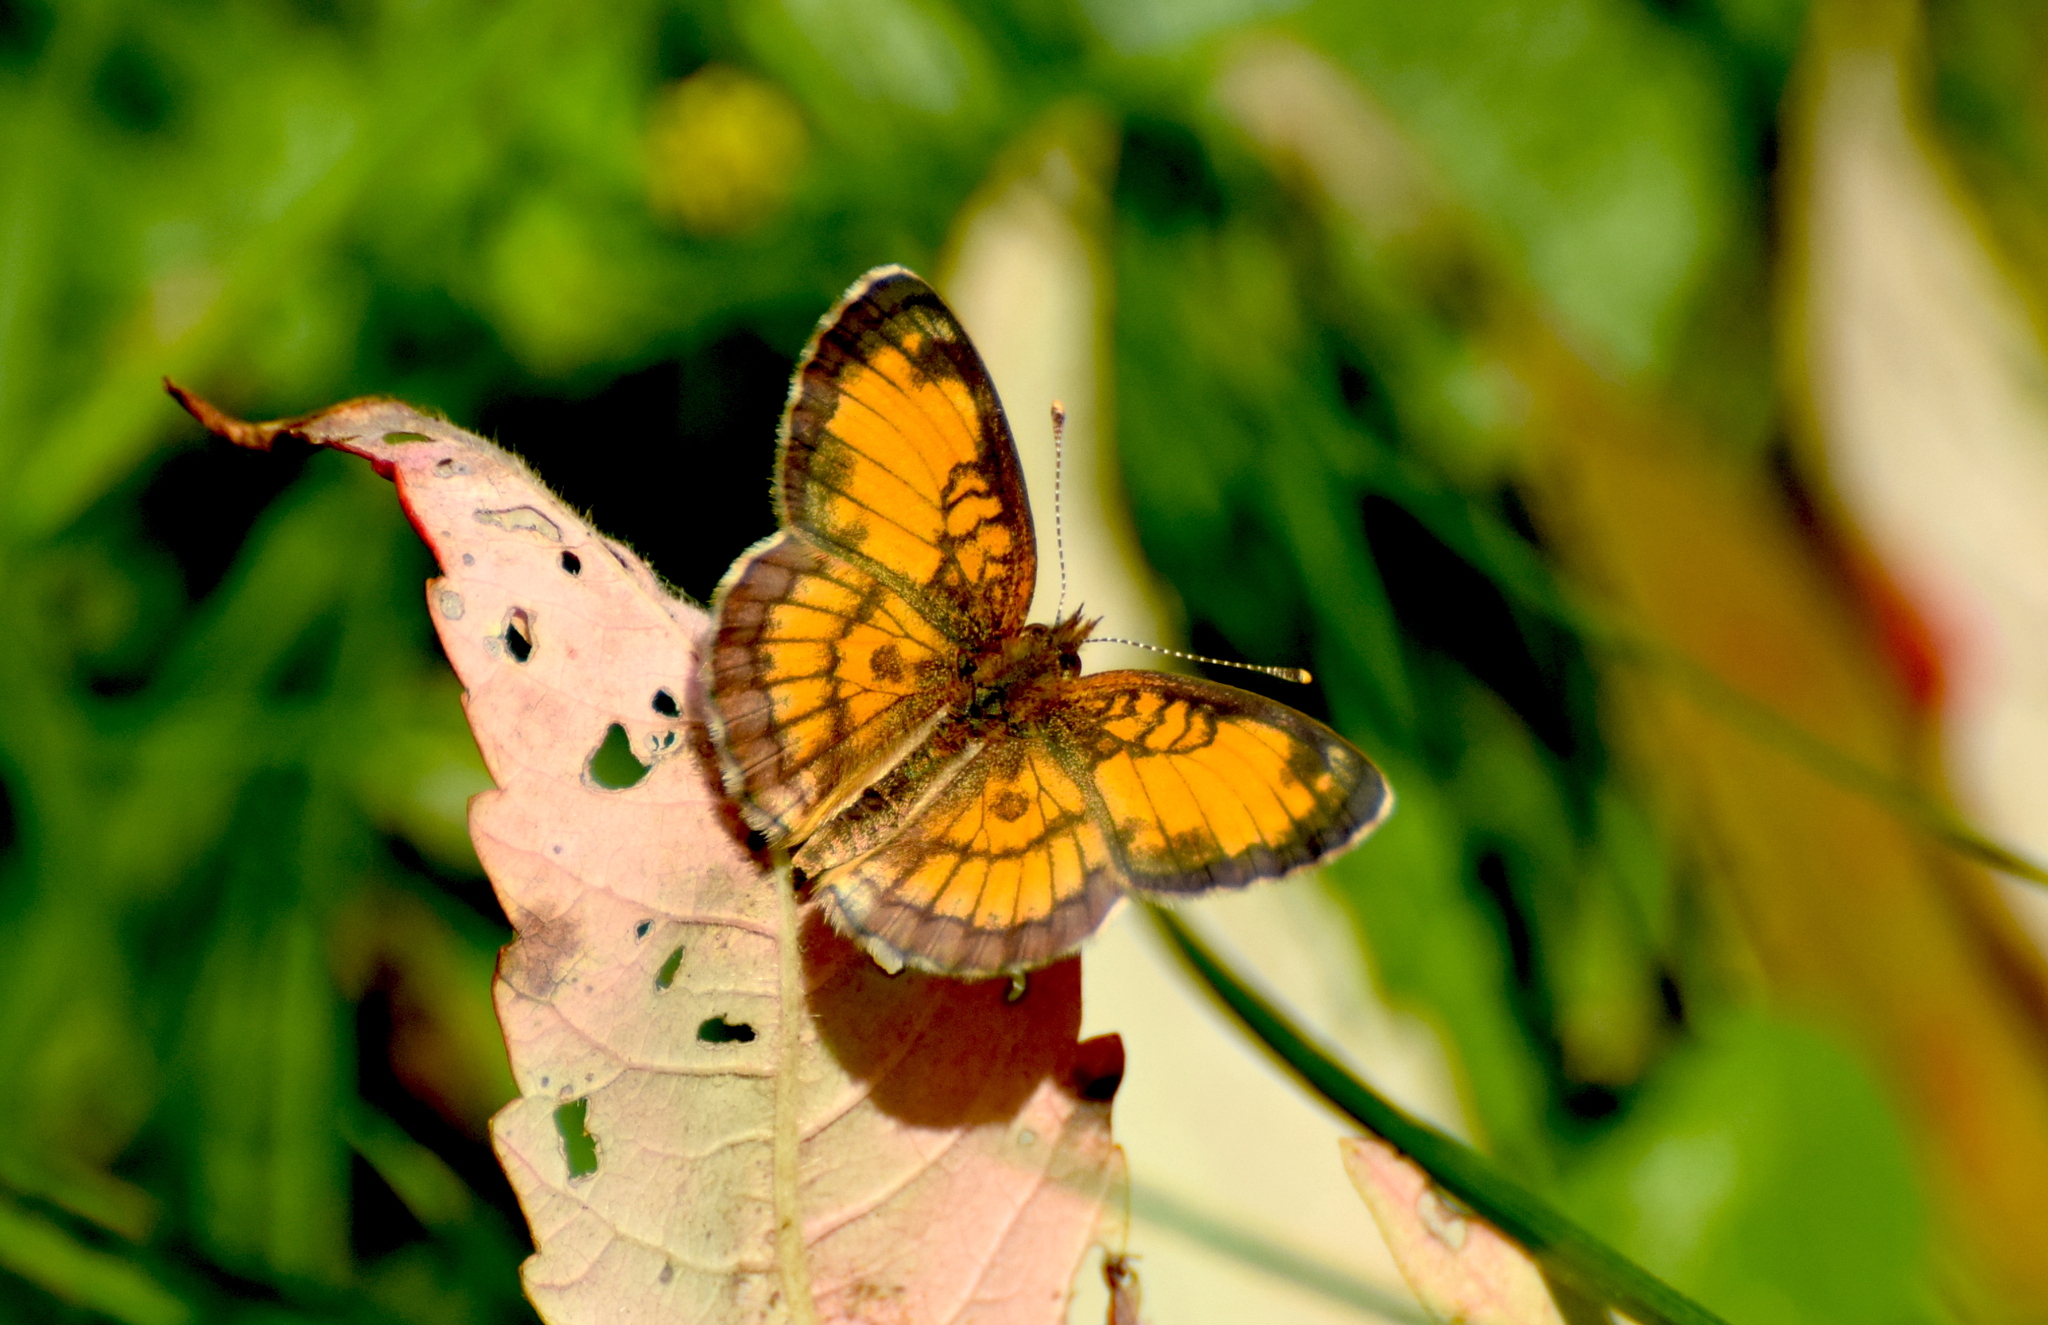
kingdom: Animalia
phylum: Arthropoda
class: Insecta
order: Lepidoptera
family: Nymphalidae
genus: Phyciodes
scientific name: Phyciodes tharos
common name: Pearl crescent
